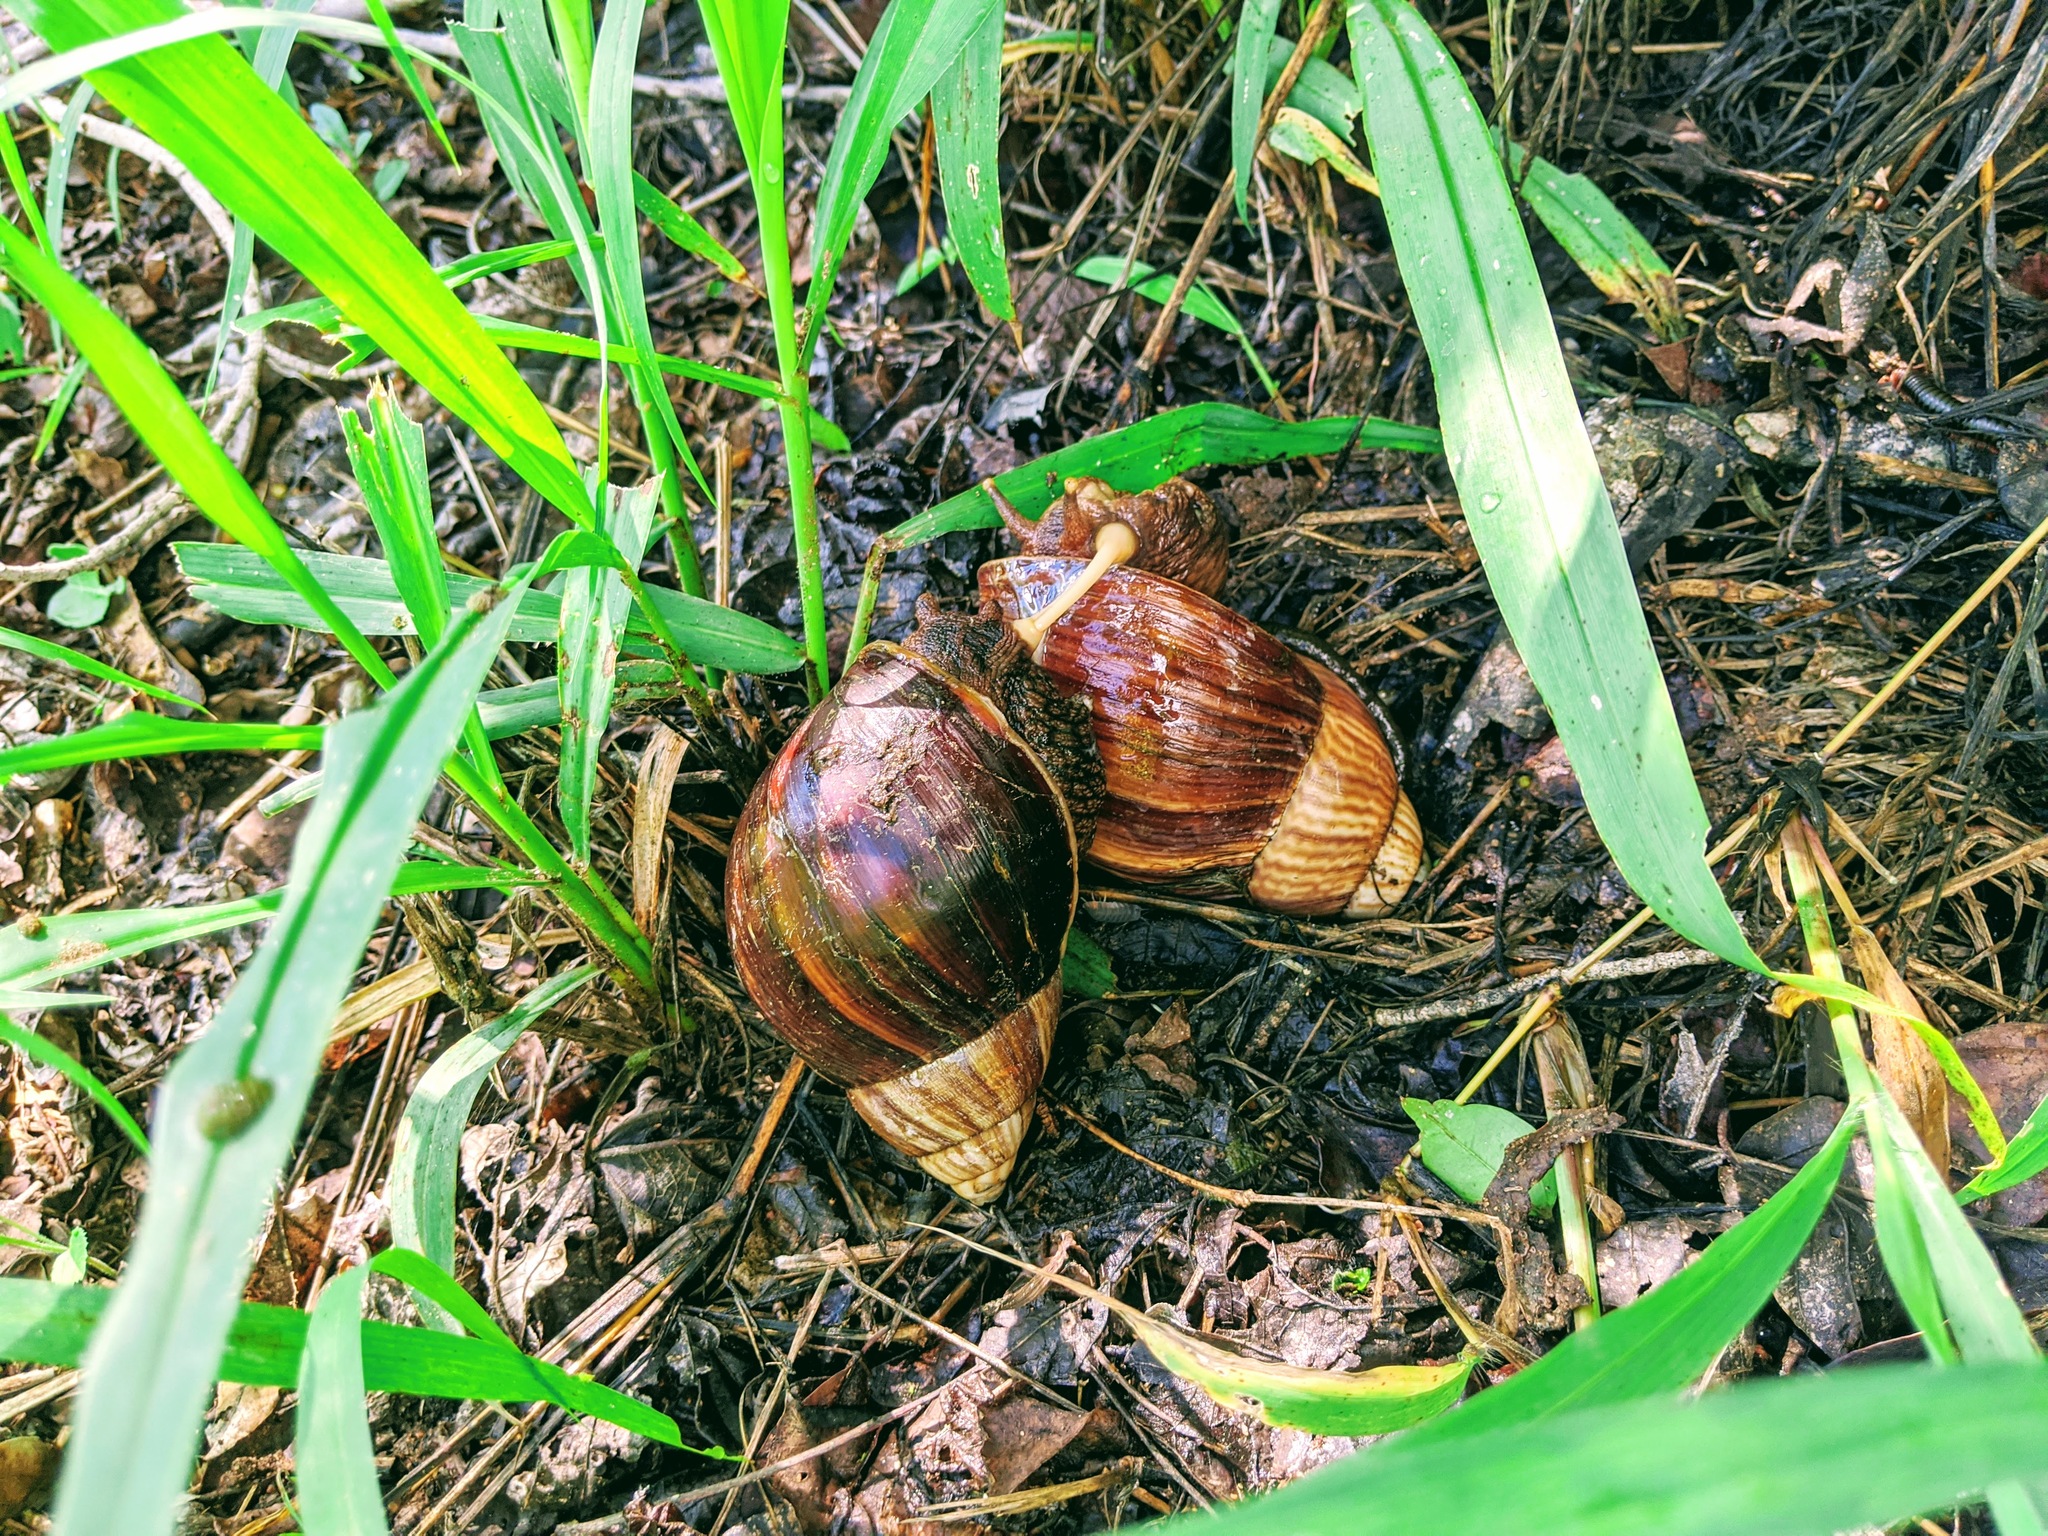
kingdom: Animalia
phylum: Mollusca
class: Gastropoda
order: Stylommatophora
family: Achatinidae
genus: Lissachatina
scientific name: Lissachatina immaculata
